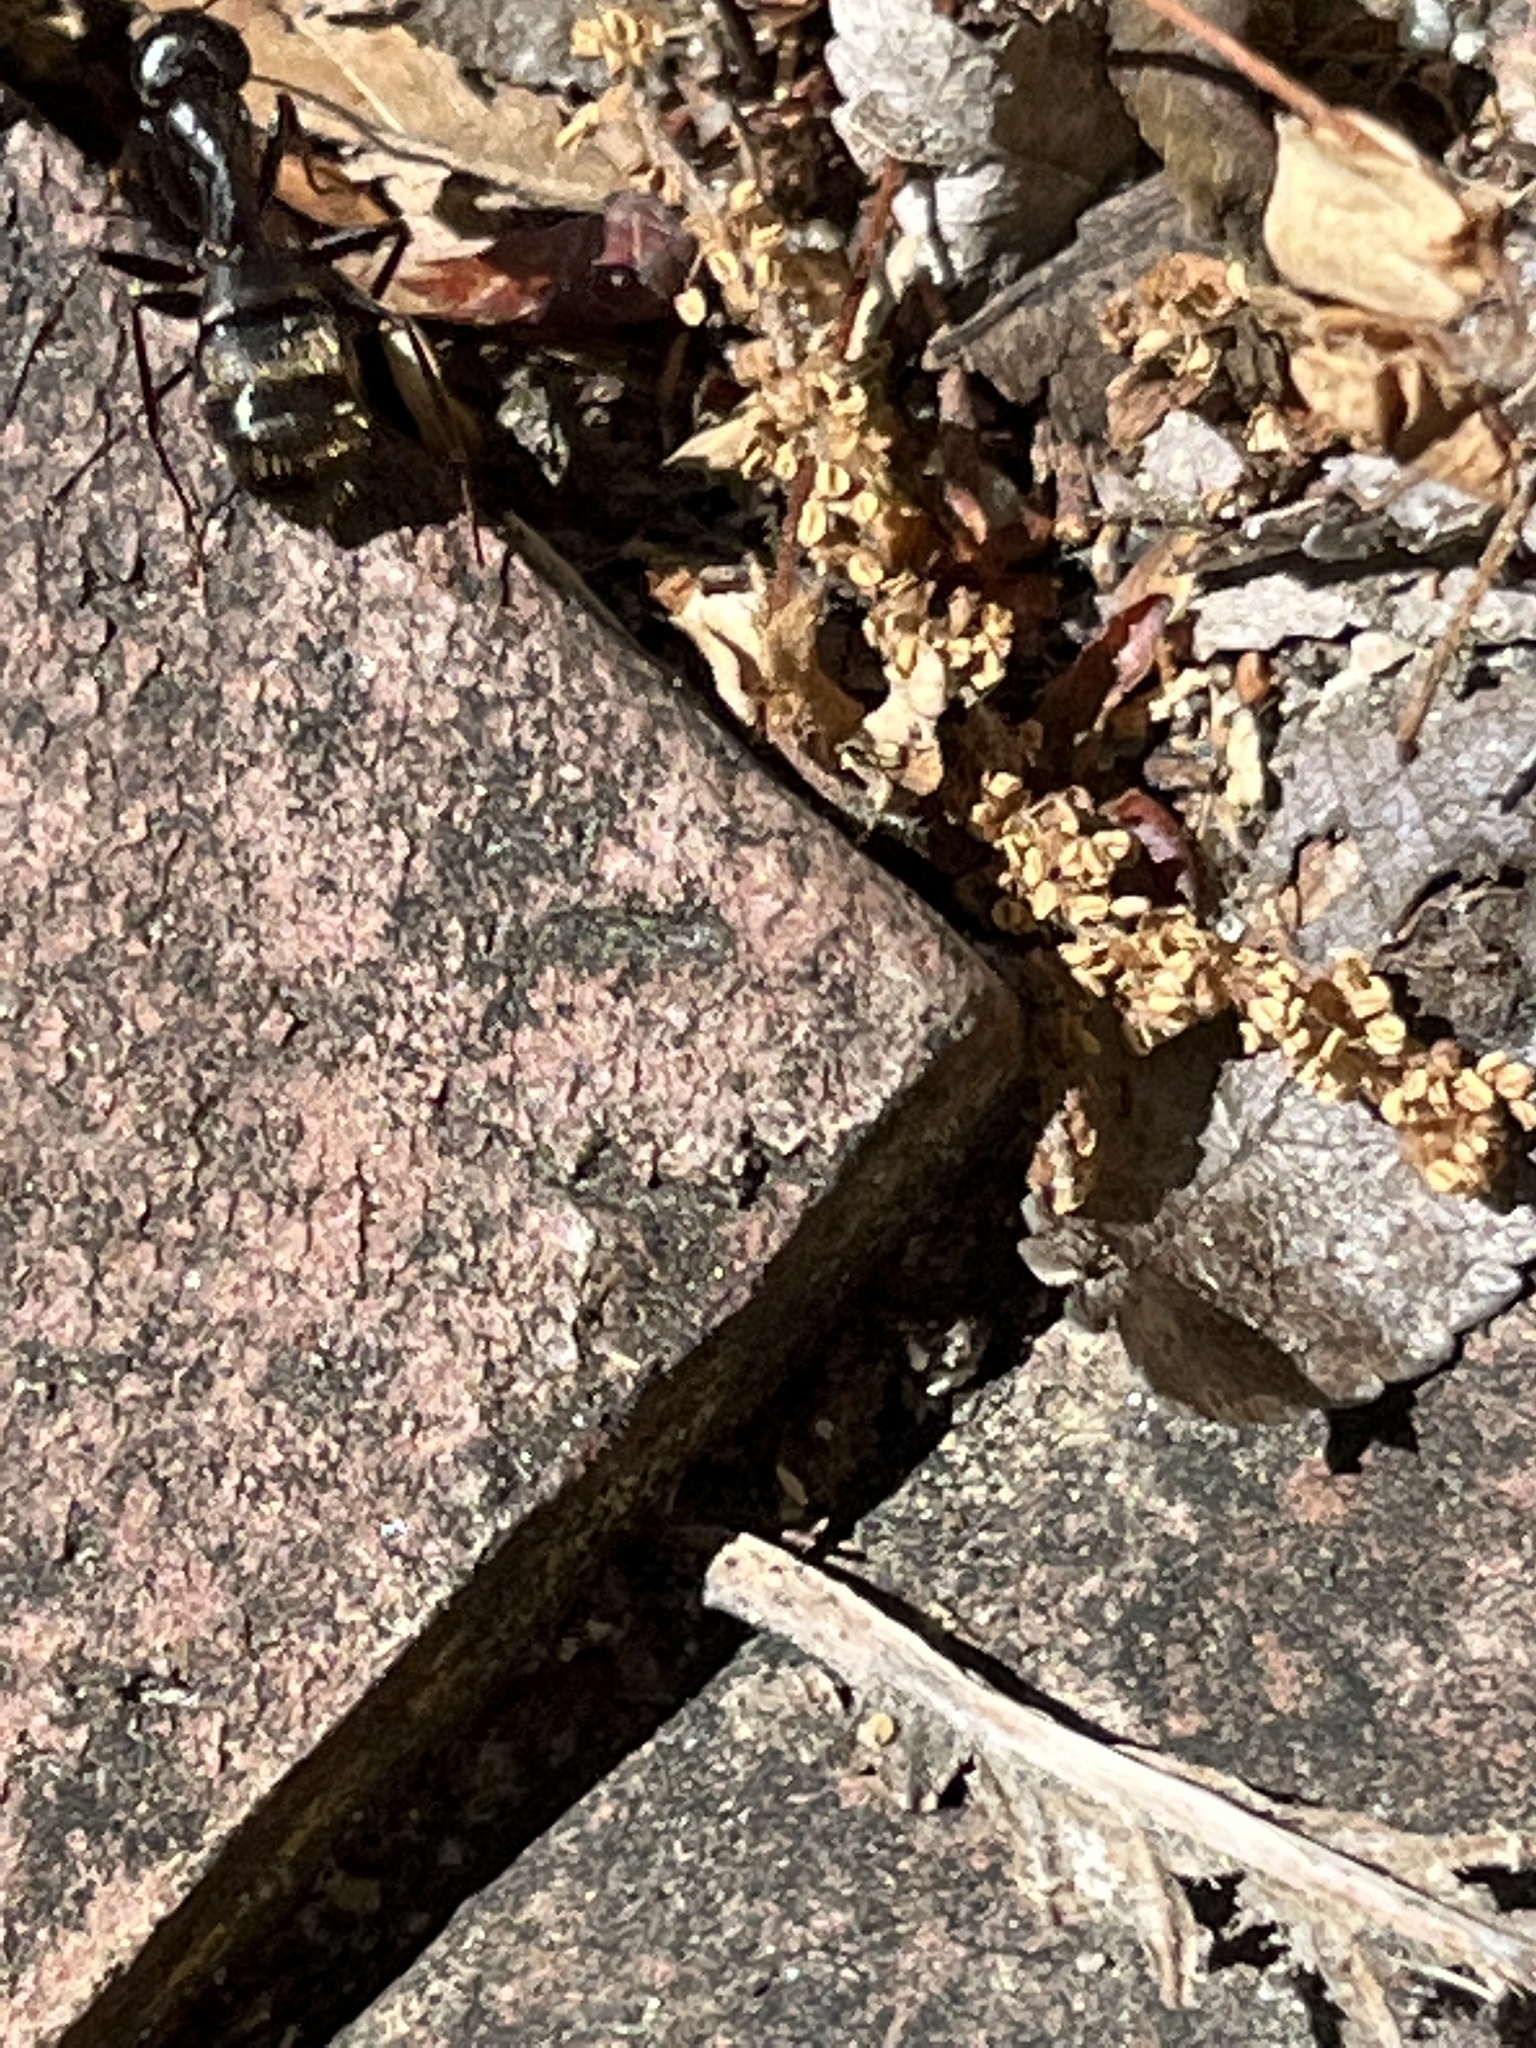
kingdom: Animalia
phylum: Arthropoda
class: Insecta
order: Hymenoptera
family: Formicidae
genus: Camponotus
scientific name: Camponotus pennsylvanicus
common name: Black carpenter ant
